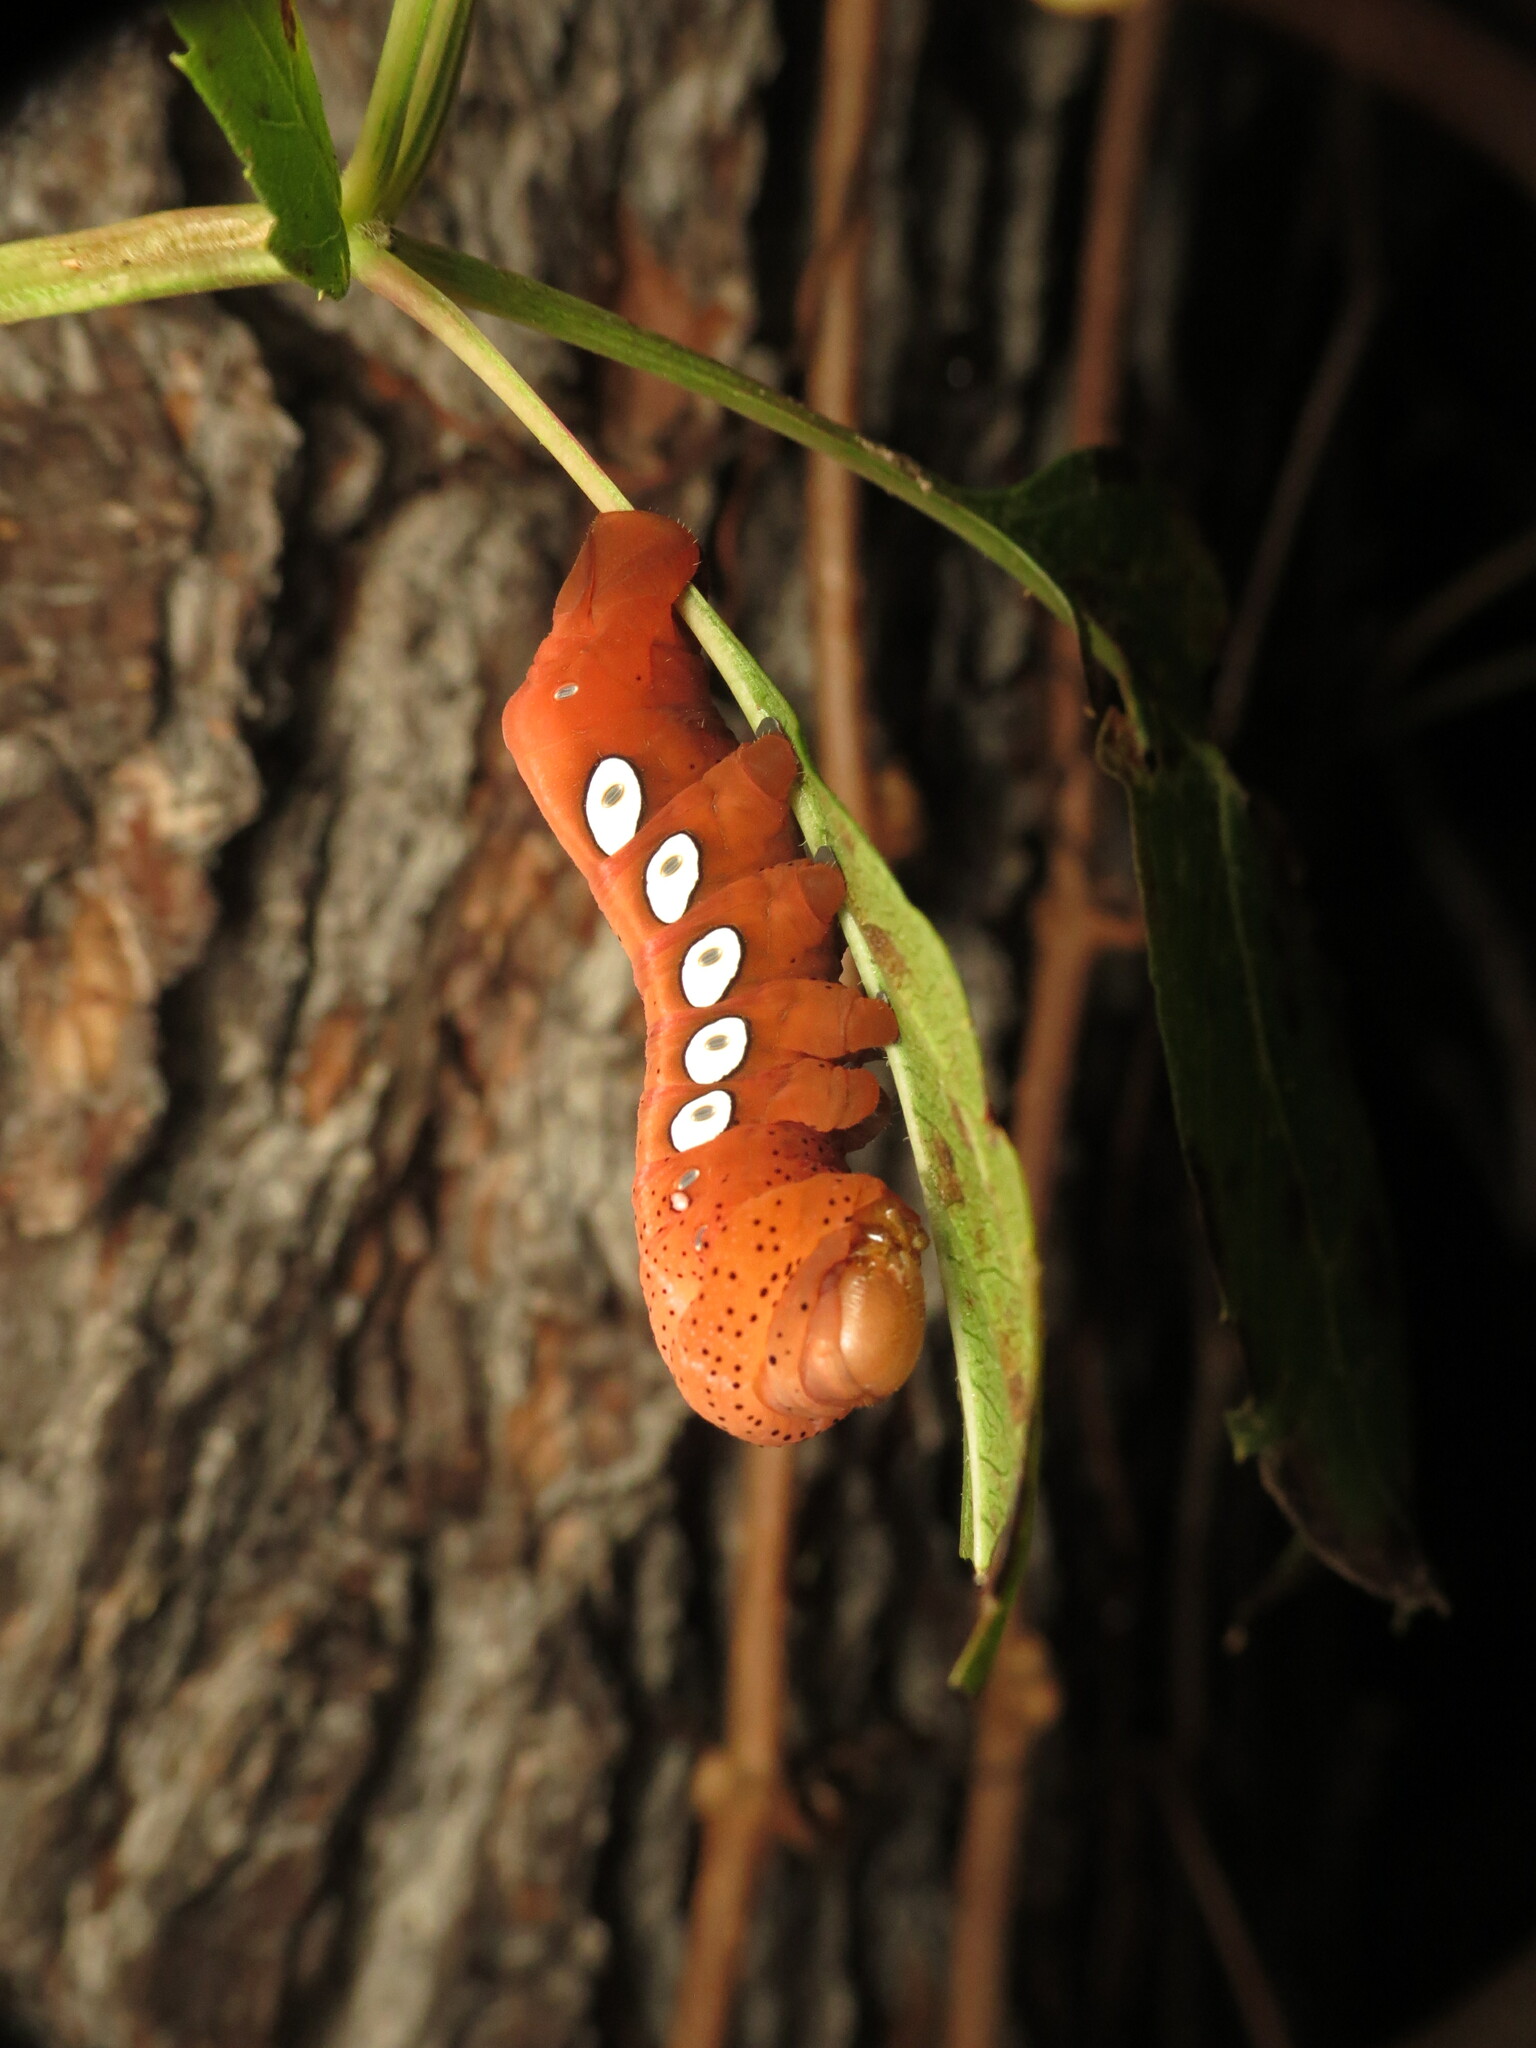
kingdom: Animalia
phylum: Arthropoda
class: Insecta
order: Lepidoptera
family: Sphingidae
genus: Eumorpha
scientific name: Eumorpha pandorus
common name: Pandora sphinx
